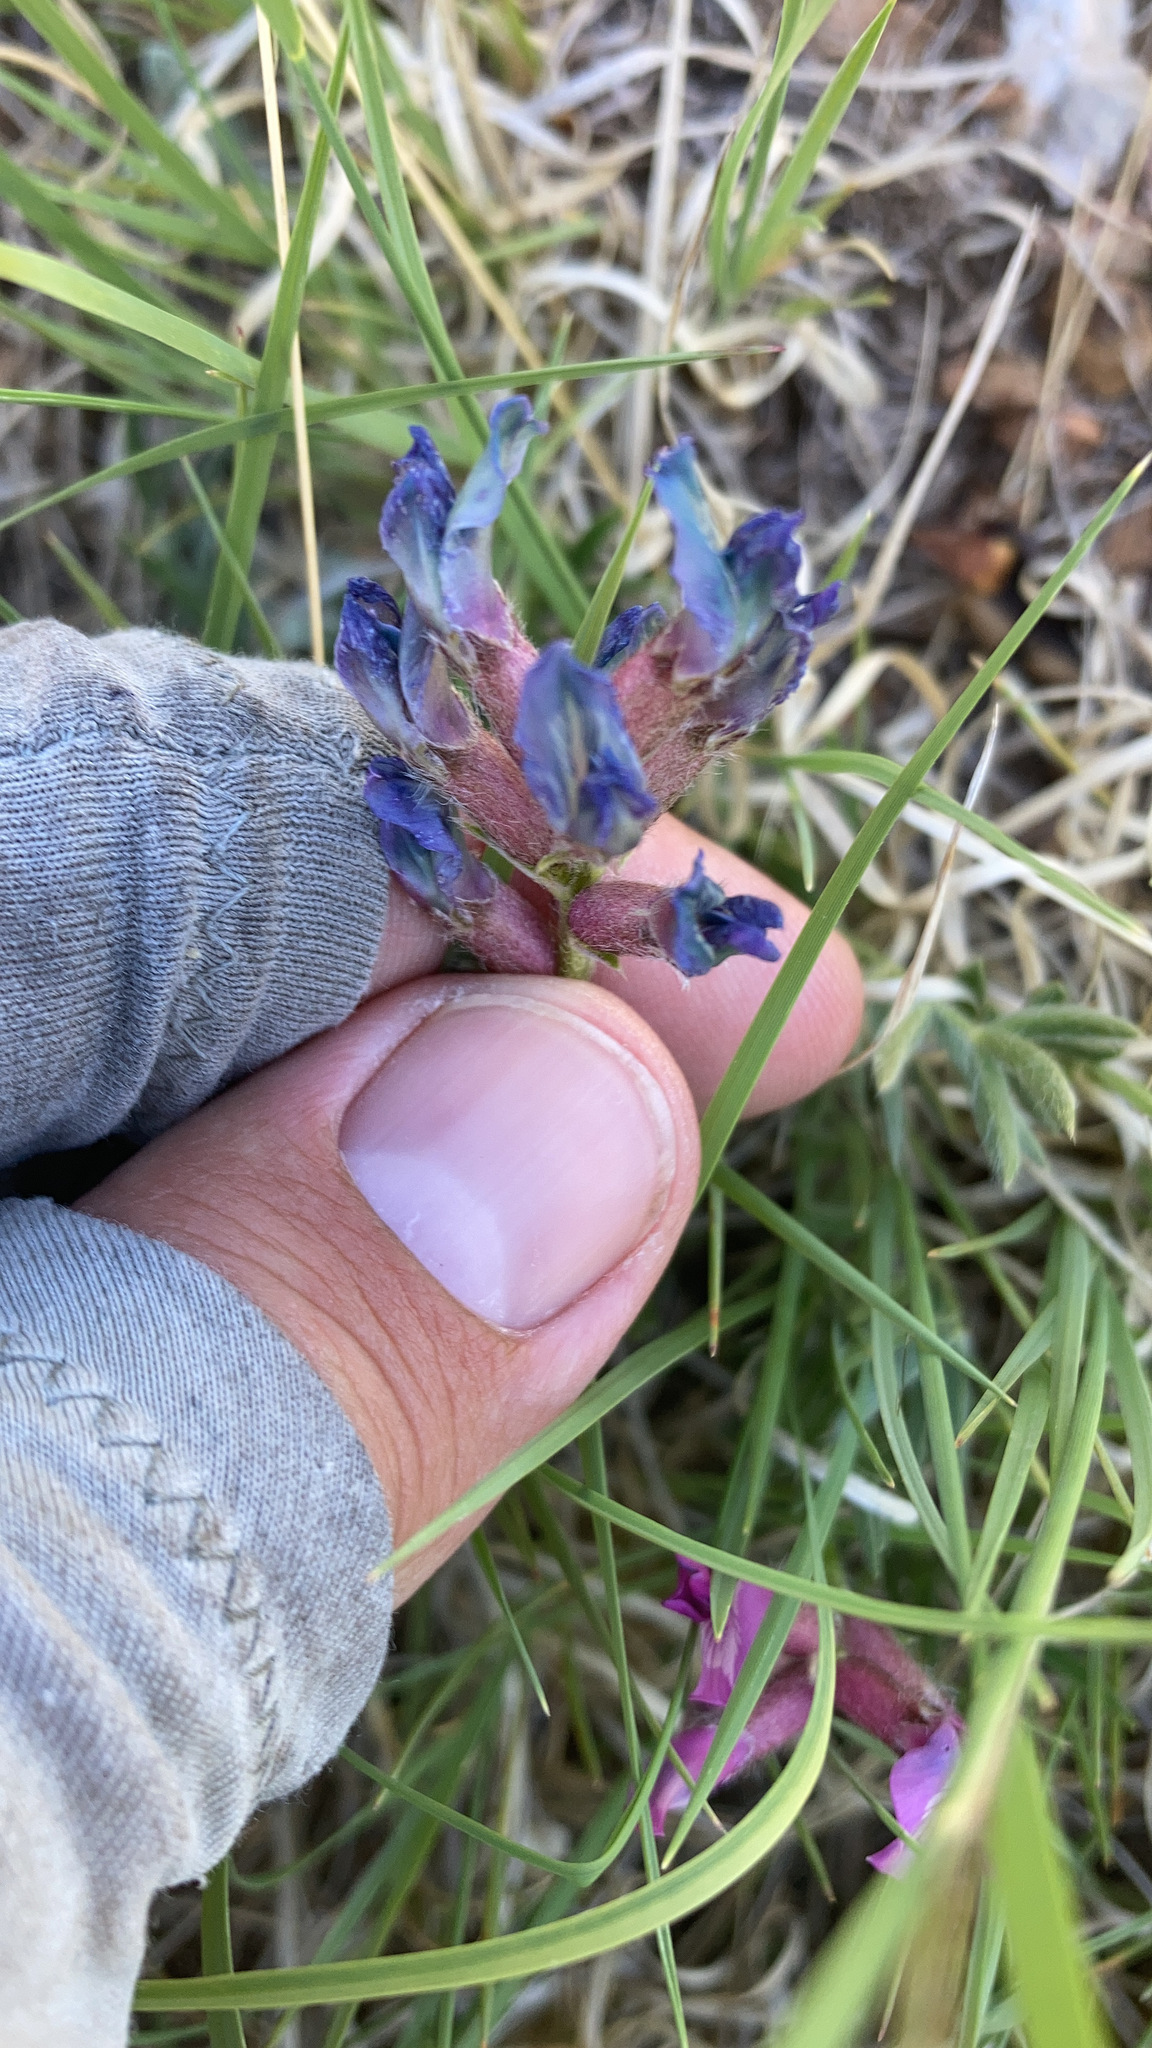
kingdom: Plantae
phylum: Tracheophyta
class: Magnoliopsida
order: Fabales
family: Fabaceae
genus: Oxytropis
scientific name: Oxytropis lambertii
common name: Purple locoweed
